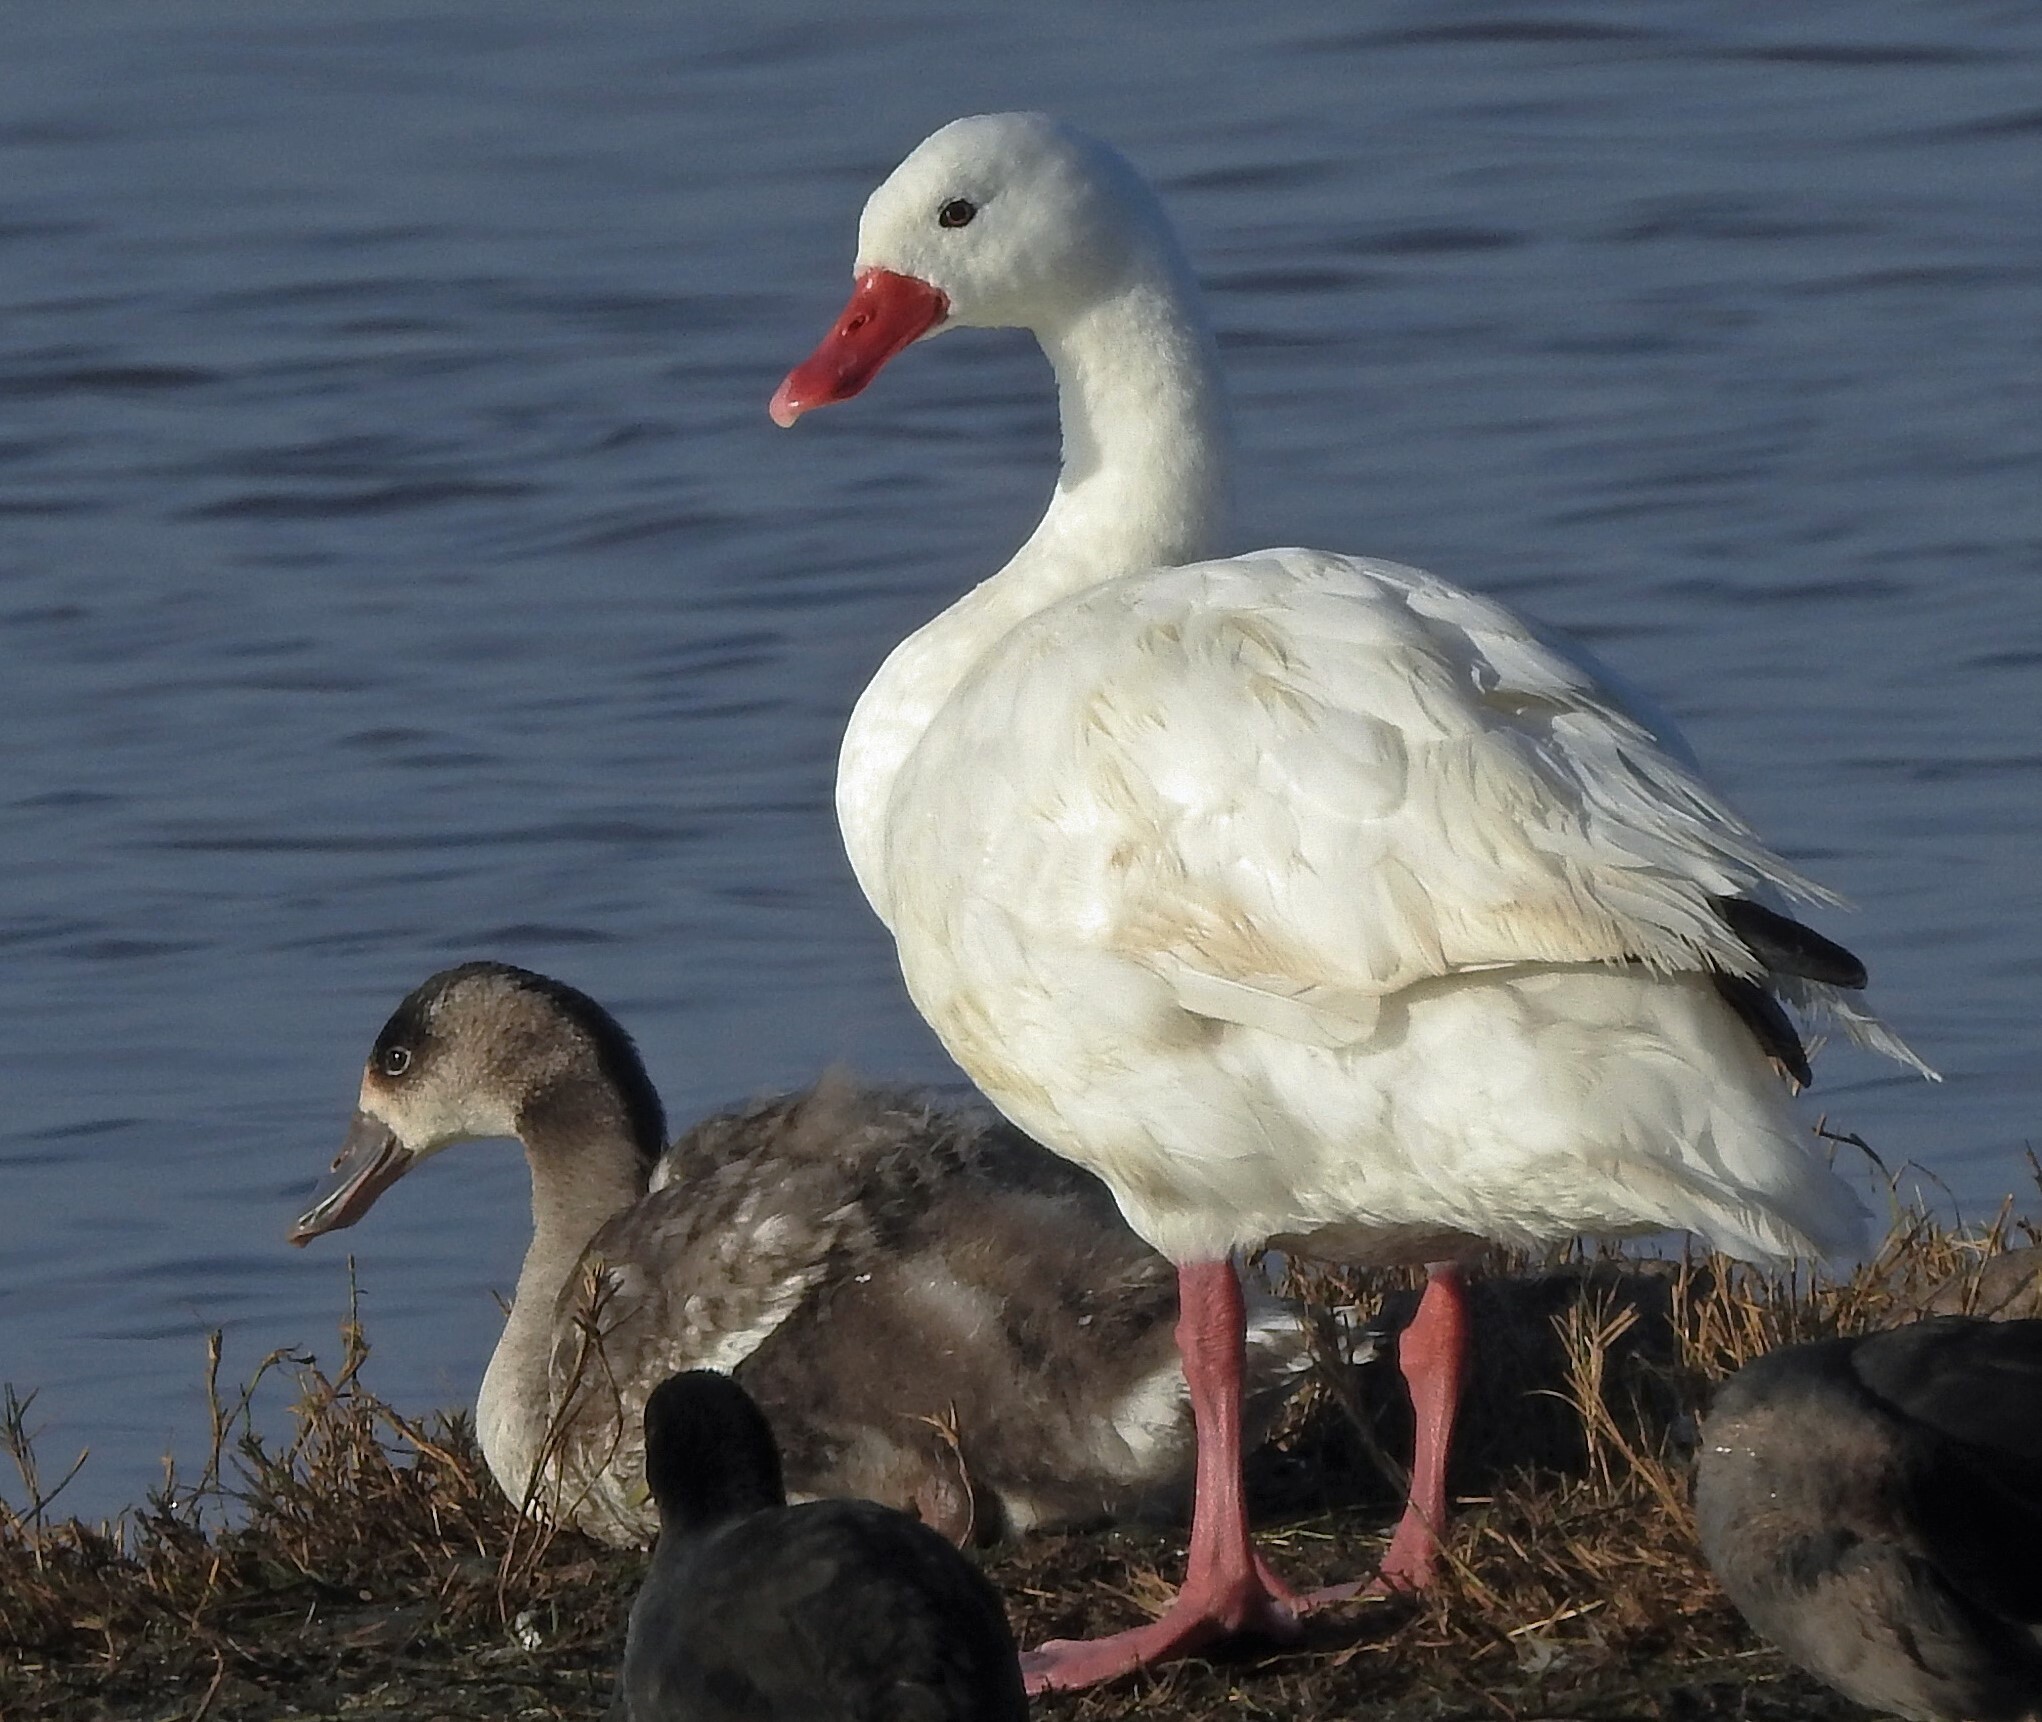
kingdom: Animalia
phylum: Chordata
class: Aves
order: Anseriformes
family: Anatidae
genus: Coscoroba
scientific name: Coscoroba coscoroba
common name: Coscoroba swan
